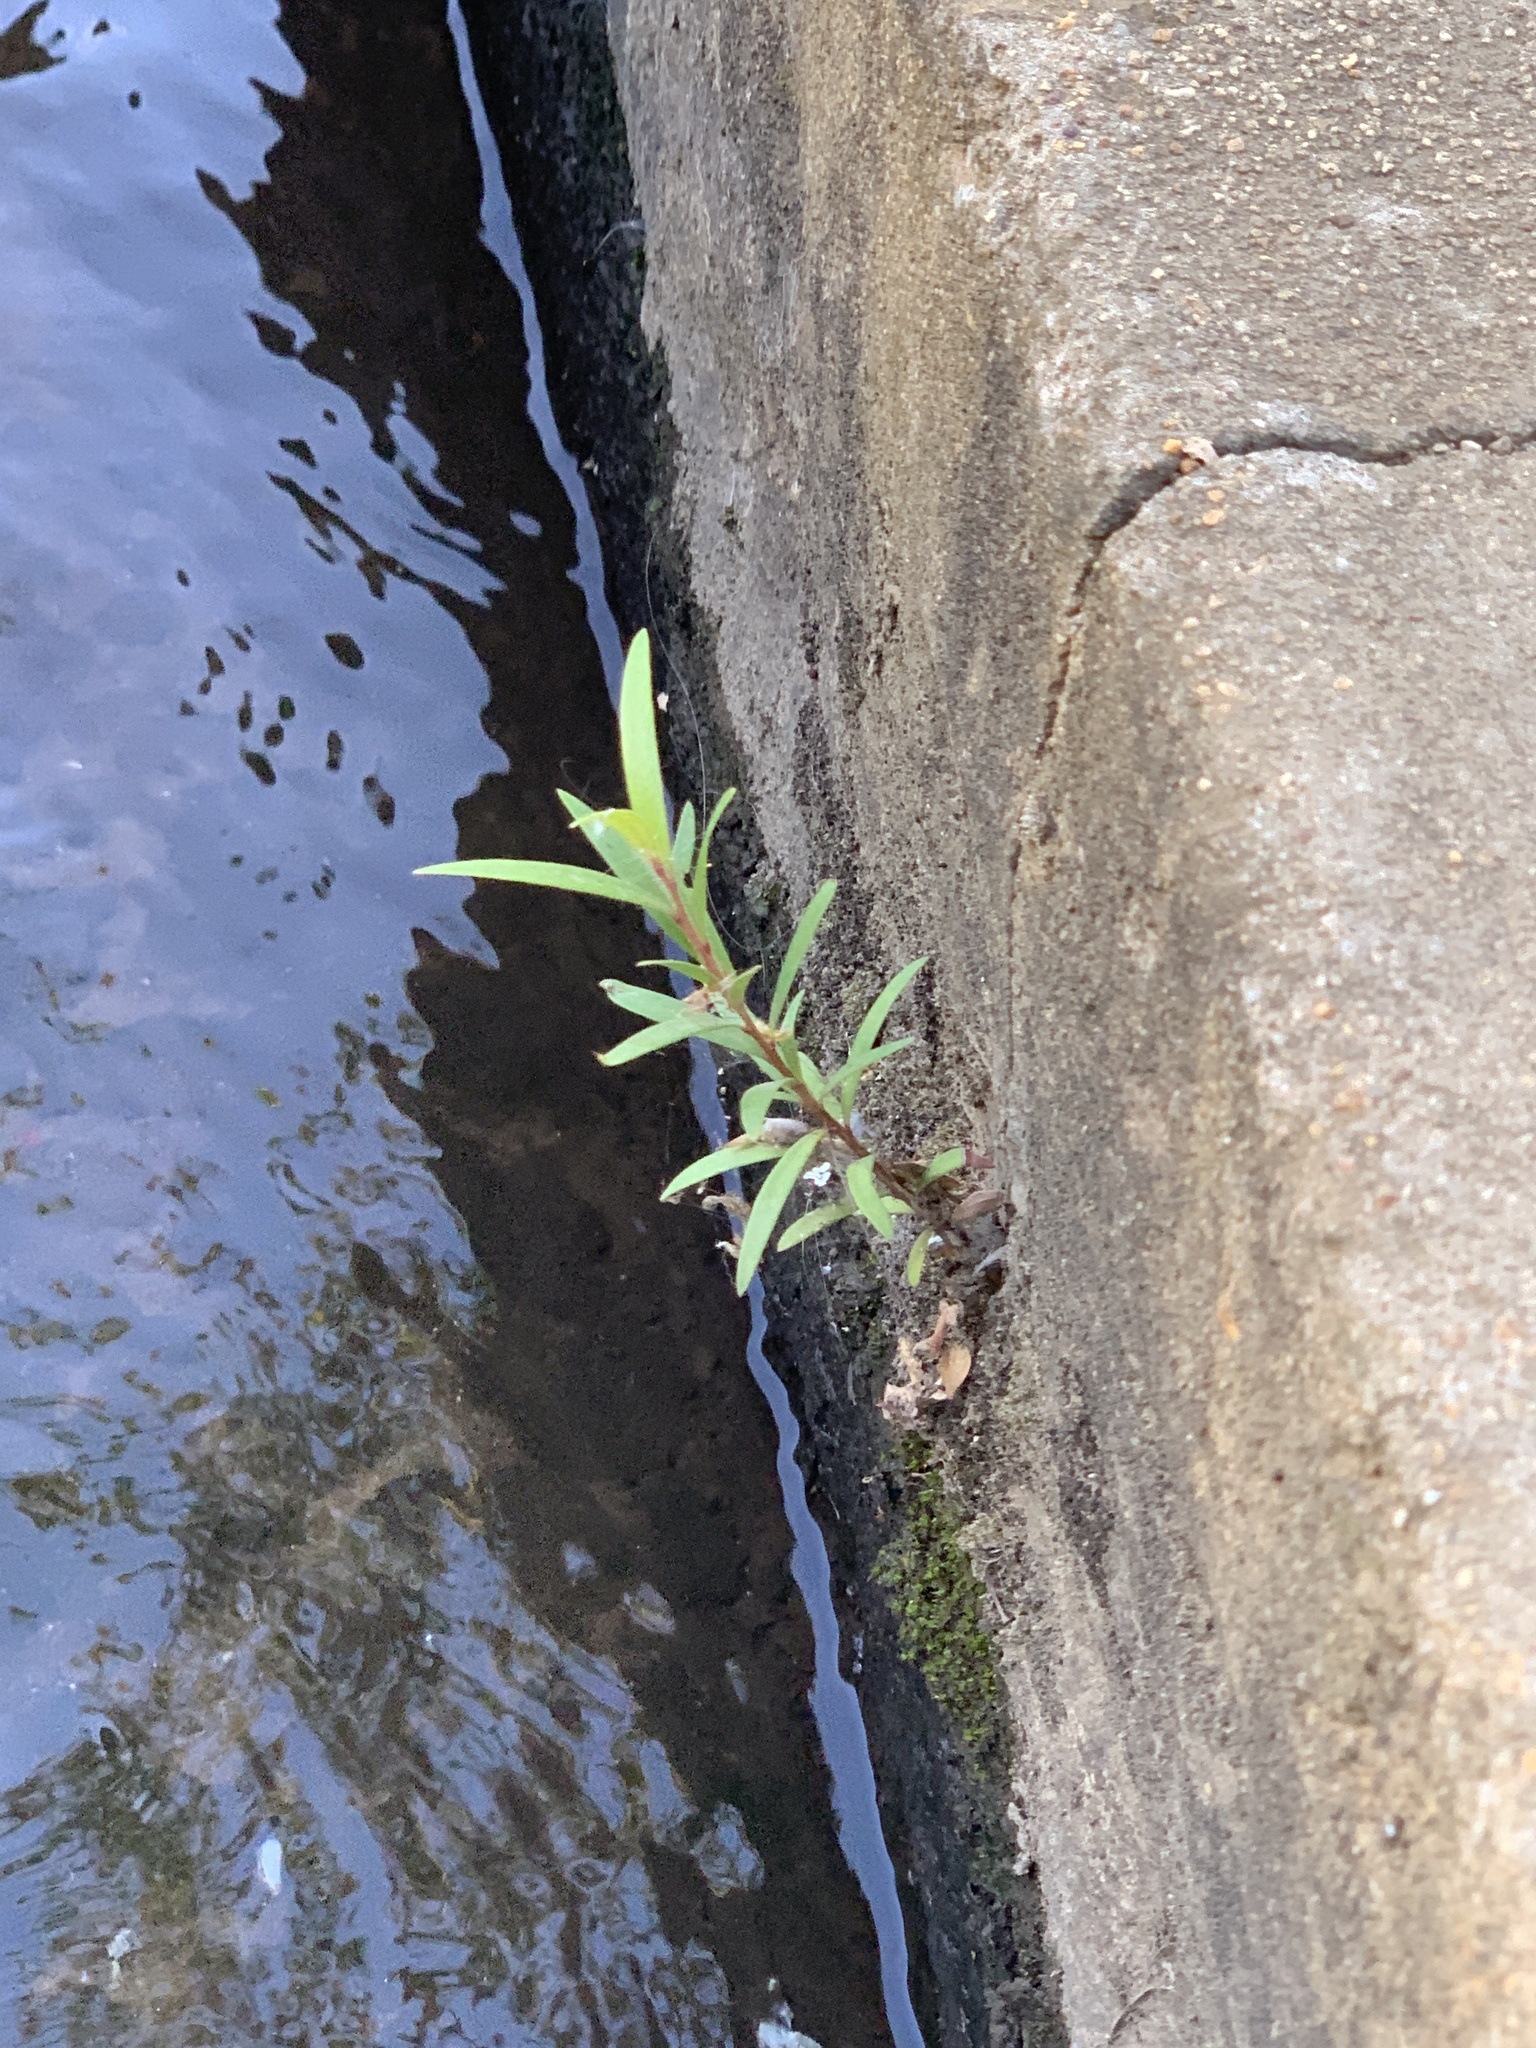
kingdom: Plantae
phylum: Tracheophyta
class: Magnoliopsida
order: Myrtales
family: Myrtaceae
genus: Callistemon
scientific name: Callistemon viminalis
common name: Drooping bottlebrush
